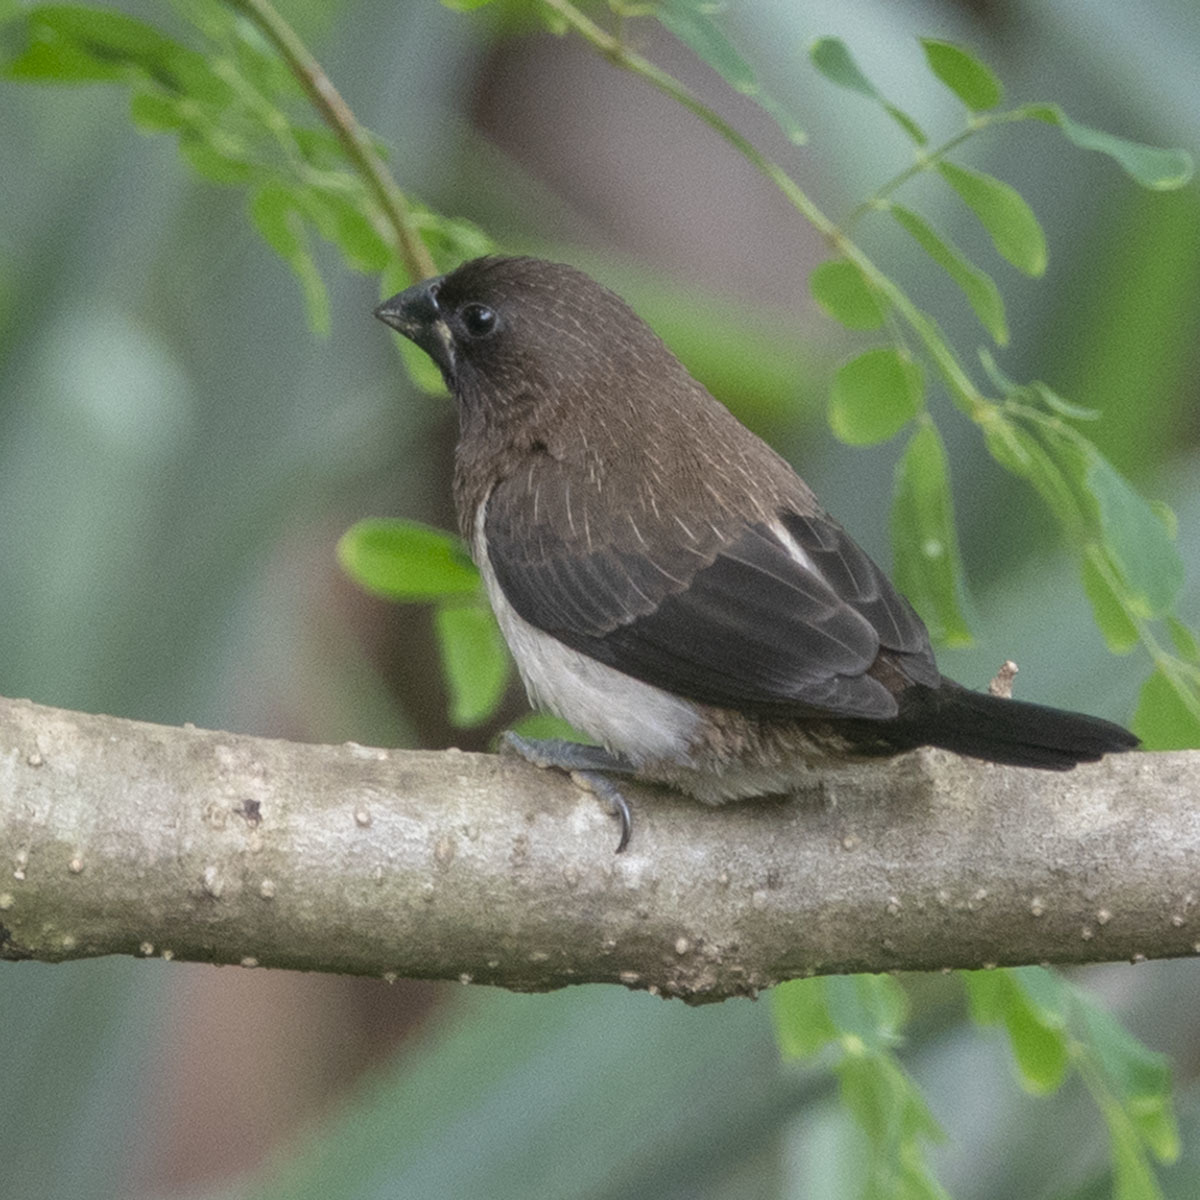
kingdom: Animalia
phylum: Chordata
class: Aves
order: Passeriformes
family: Estrildidae
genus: Lonchura
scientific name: Lonchura striata
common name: White-rumped munia
